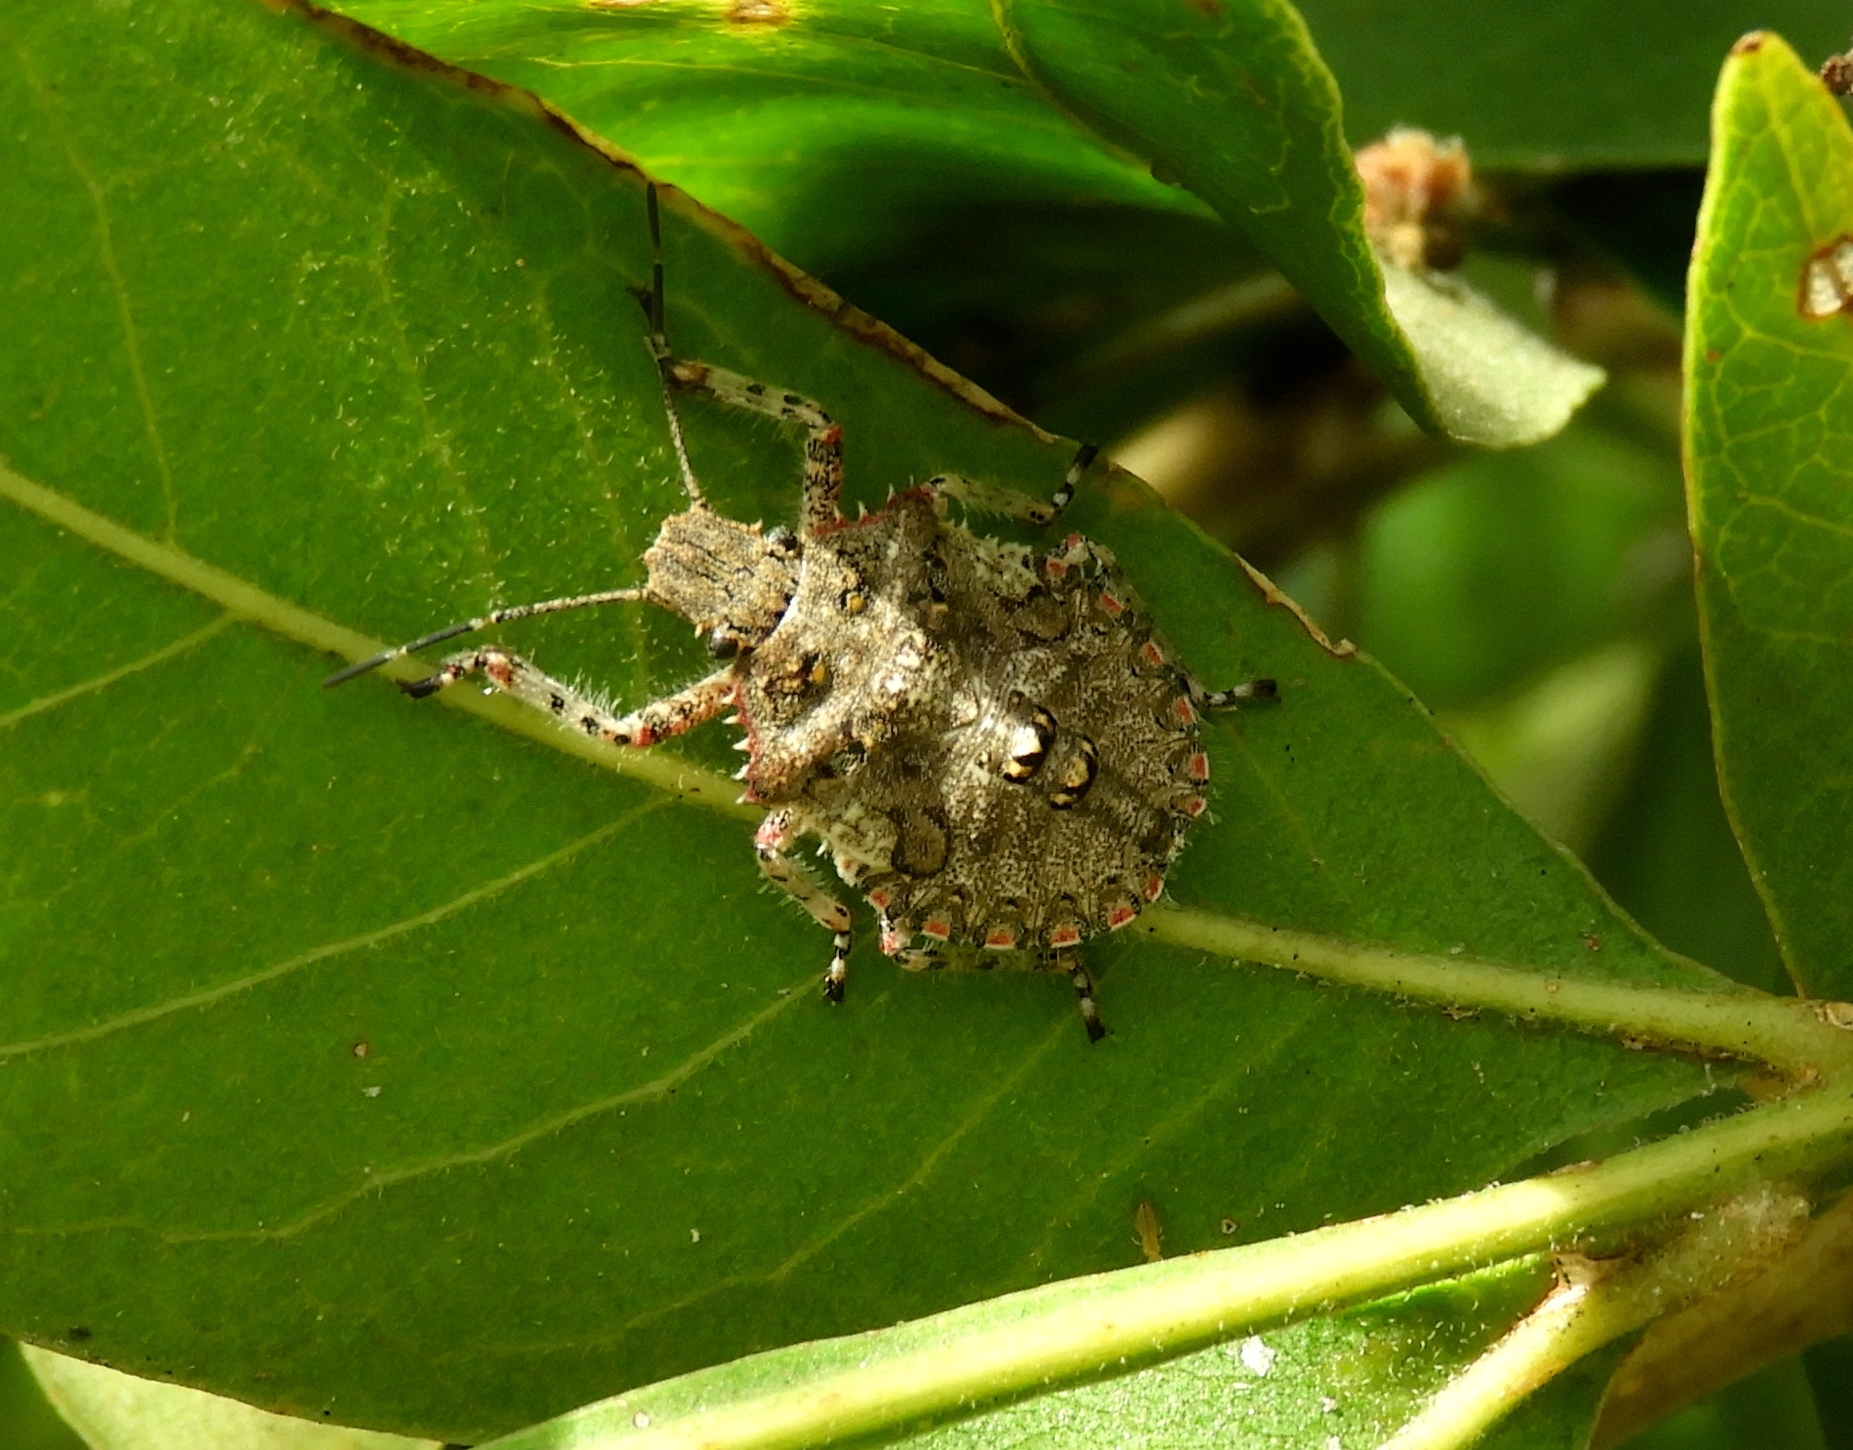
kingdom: Animalia
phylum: Arthropoda
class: Insecta
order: Hemiptera
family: Pentatomidae
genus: Brochymena
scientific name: Brochymena
